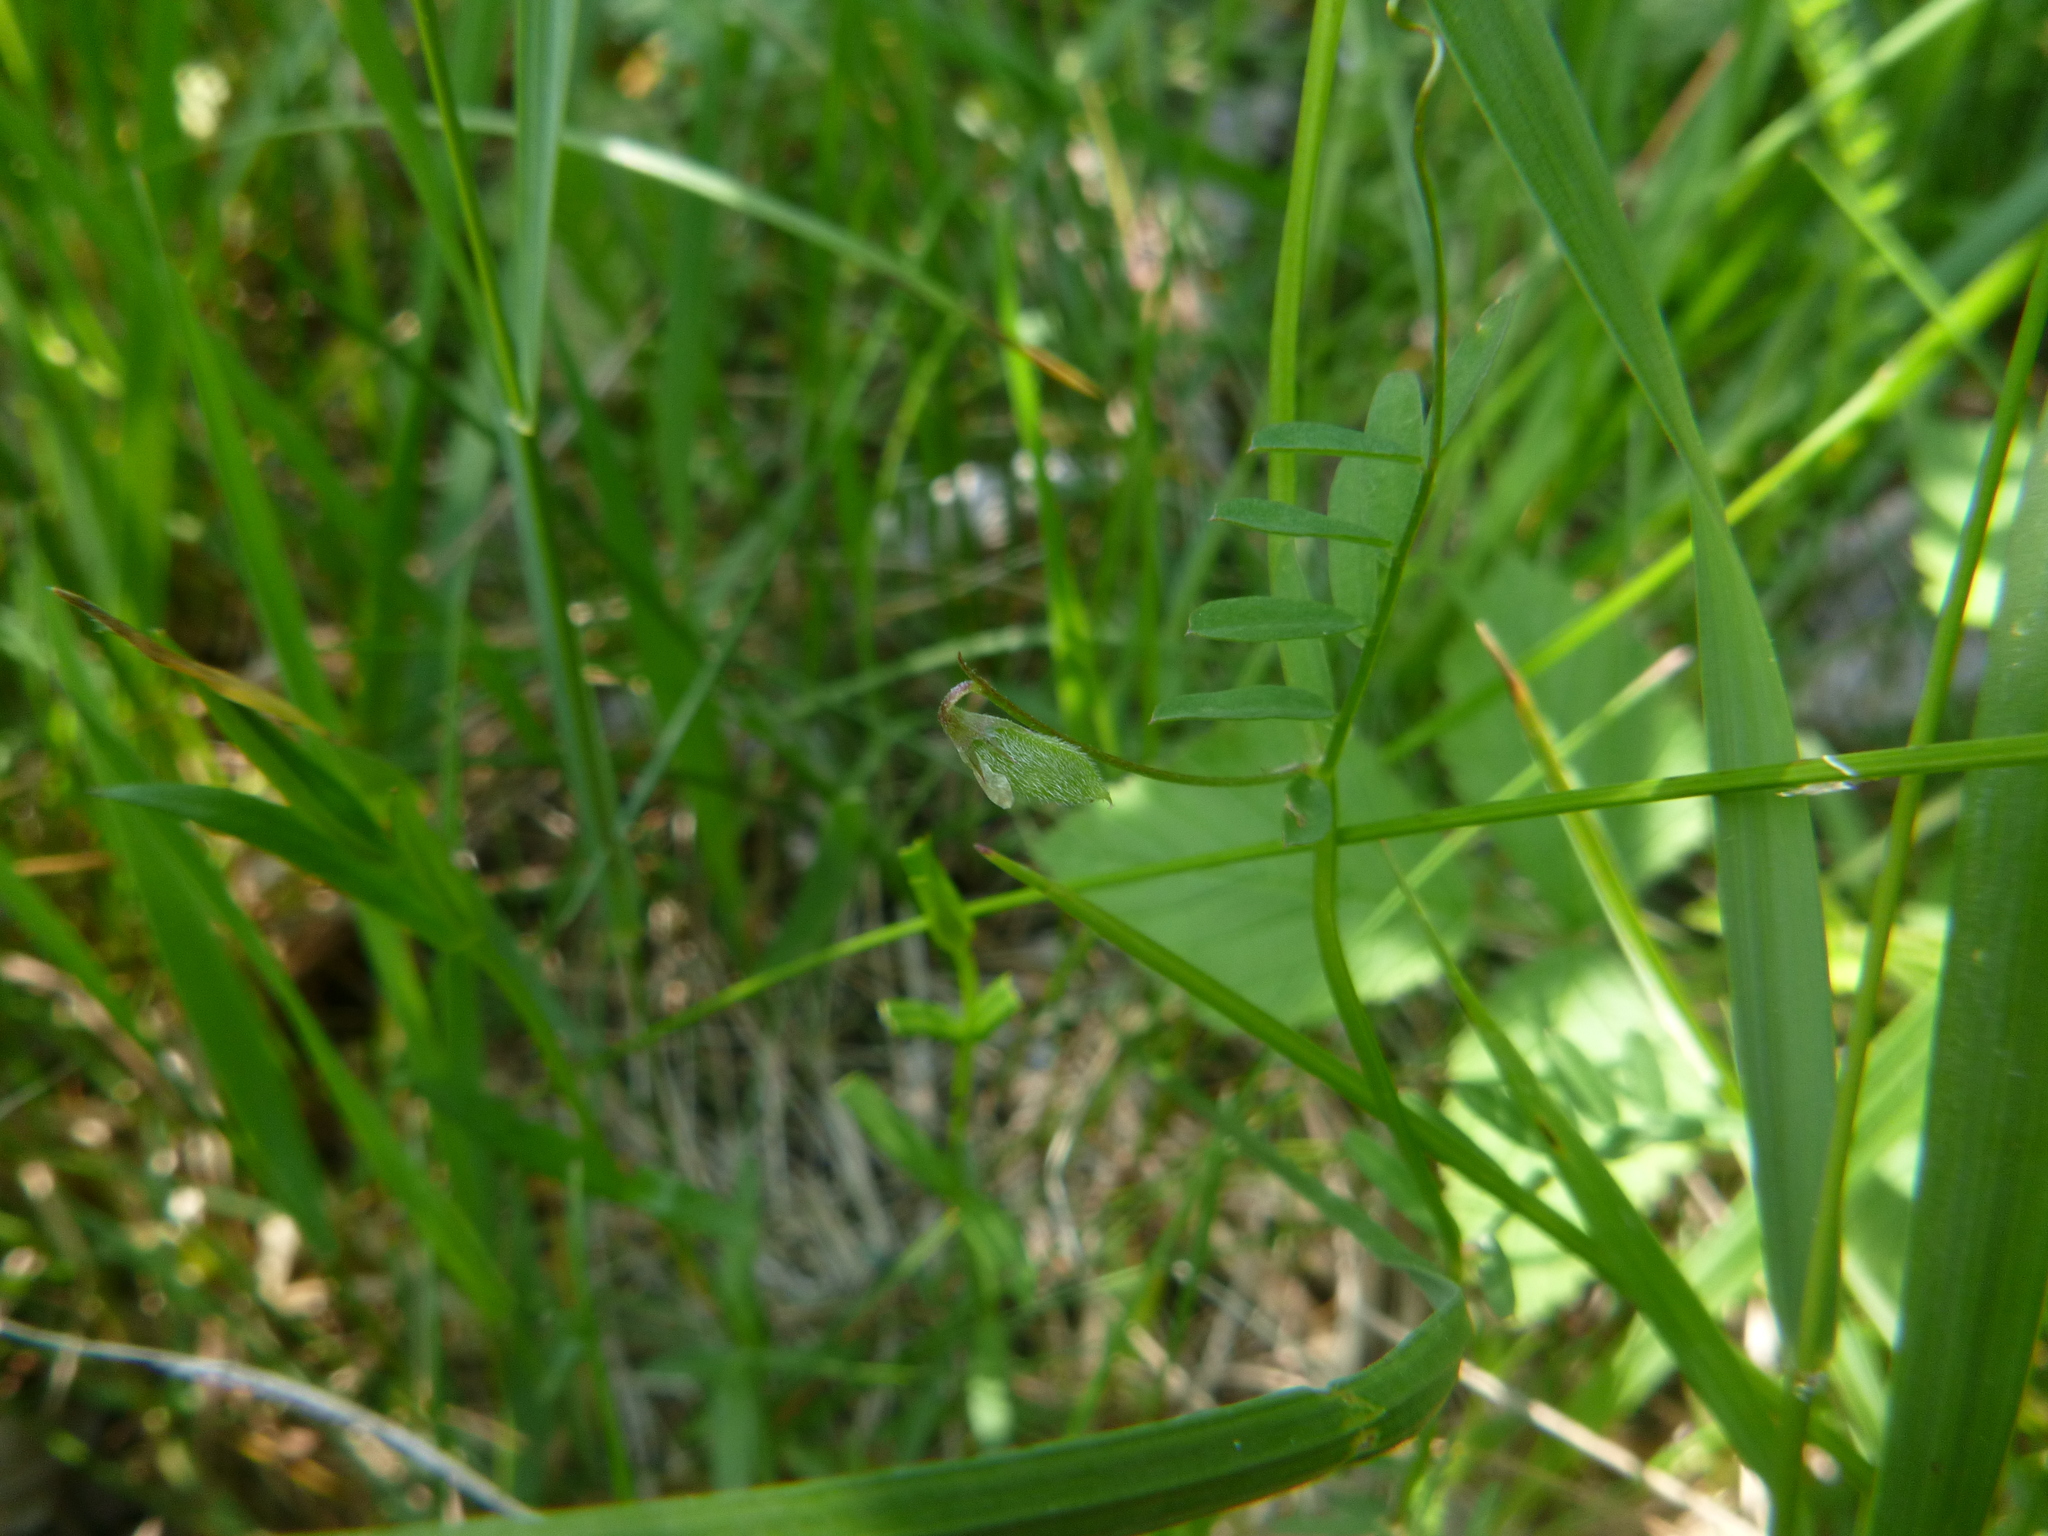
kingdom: Plantae
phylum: Tracheophyta
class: Magnoliopsida
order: Fabales
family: Fabaceae
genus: Vicia
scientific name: Vicia hirsuta
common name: Tiny vetch
